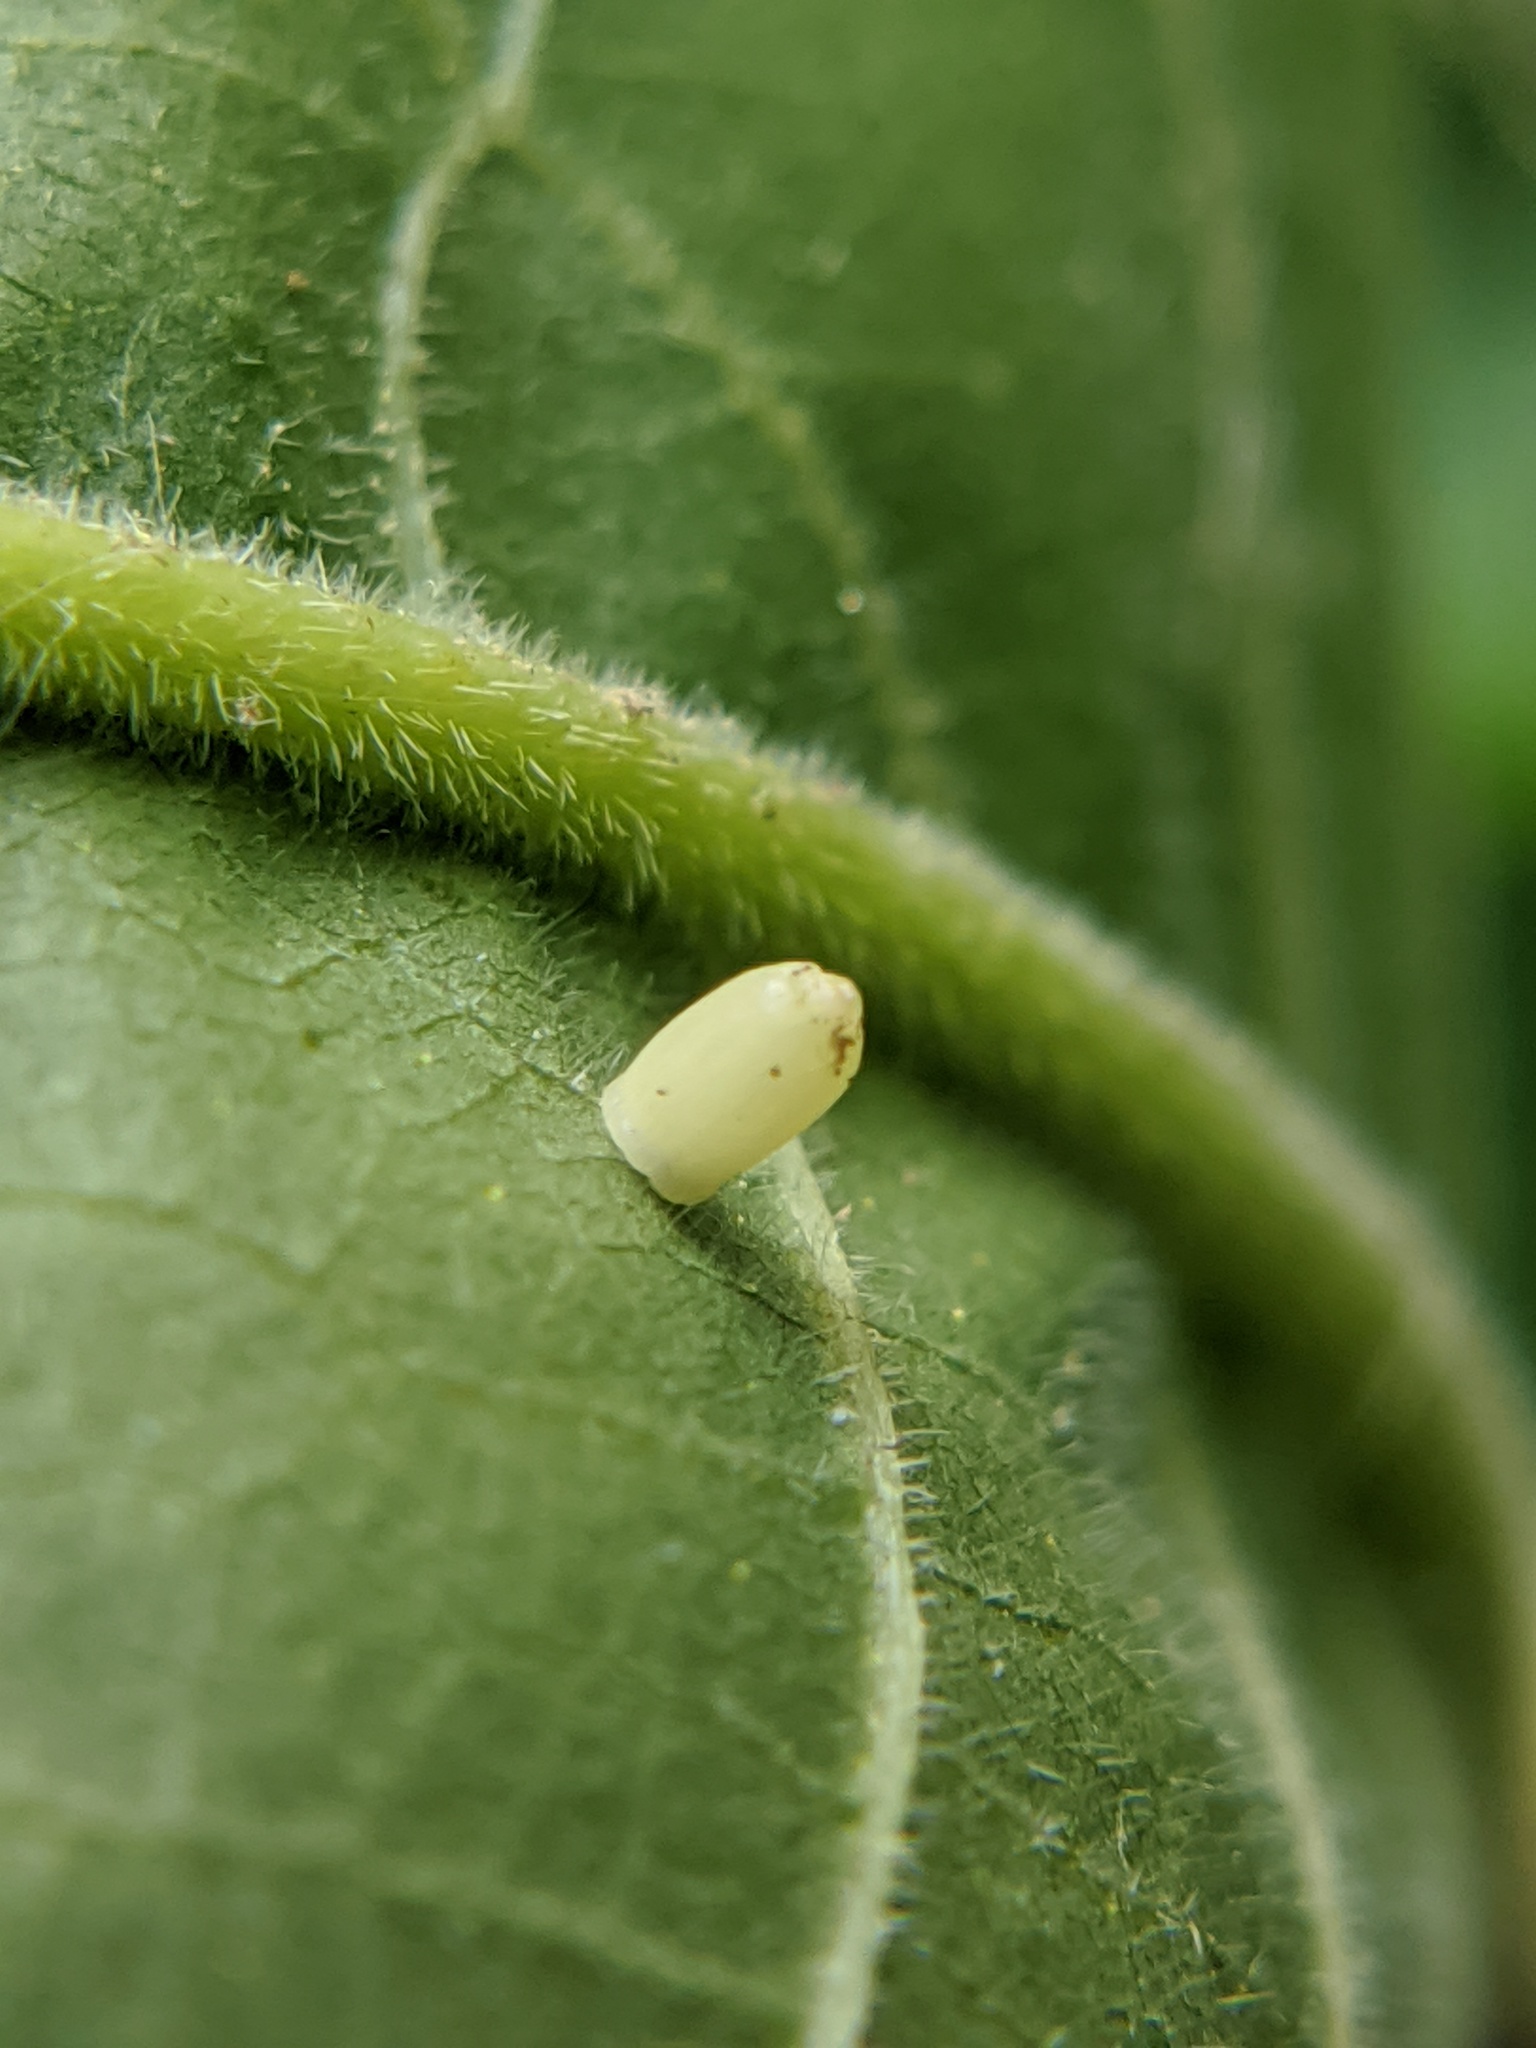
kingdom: Animalia
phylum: Arthropoda
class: Insecta
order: Diptera
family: Cecidomyiidae
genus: Caryomyia
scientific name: Caryomyia urnula
